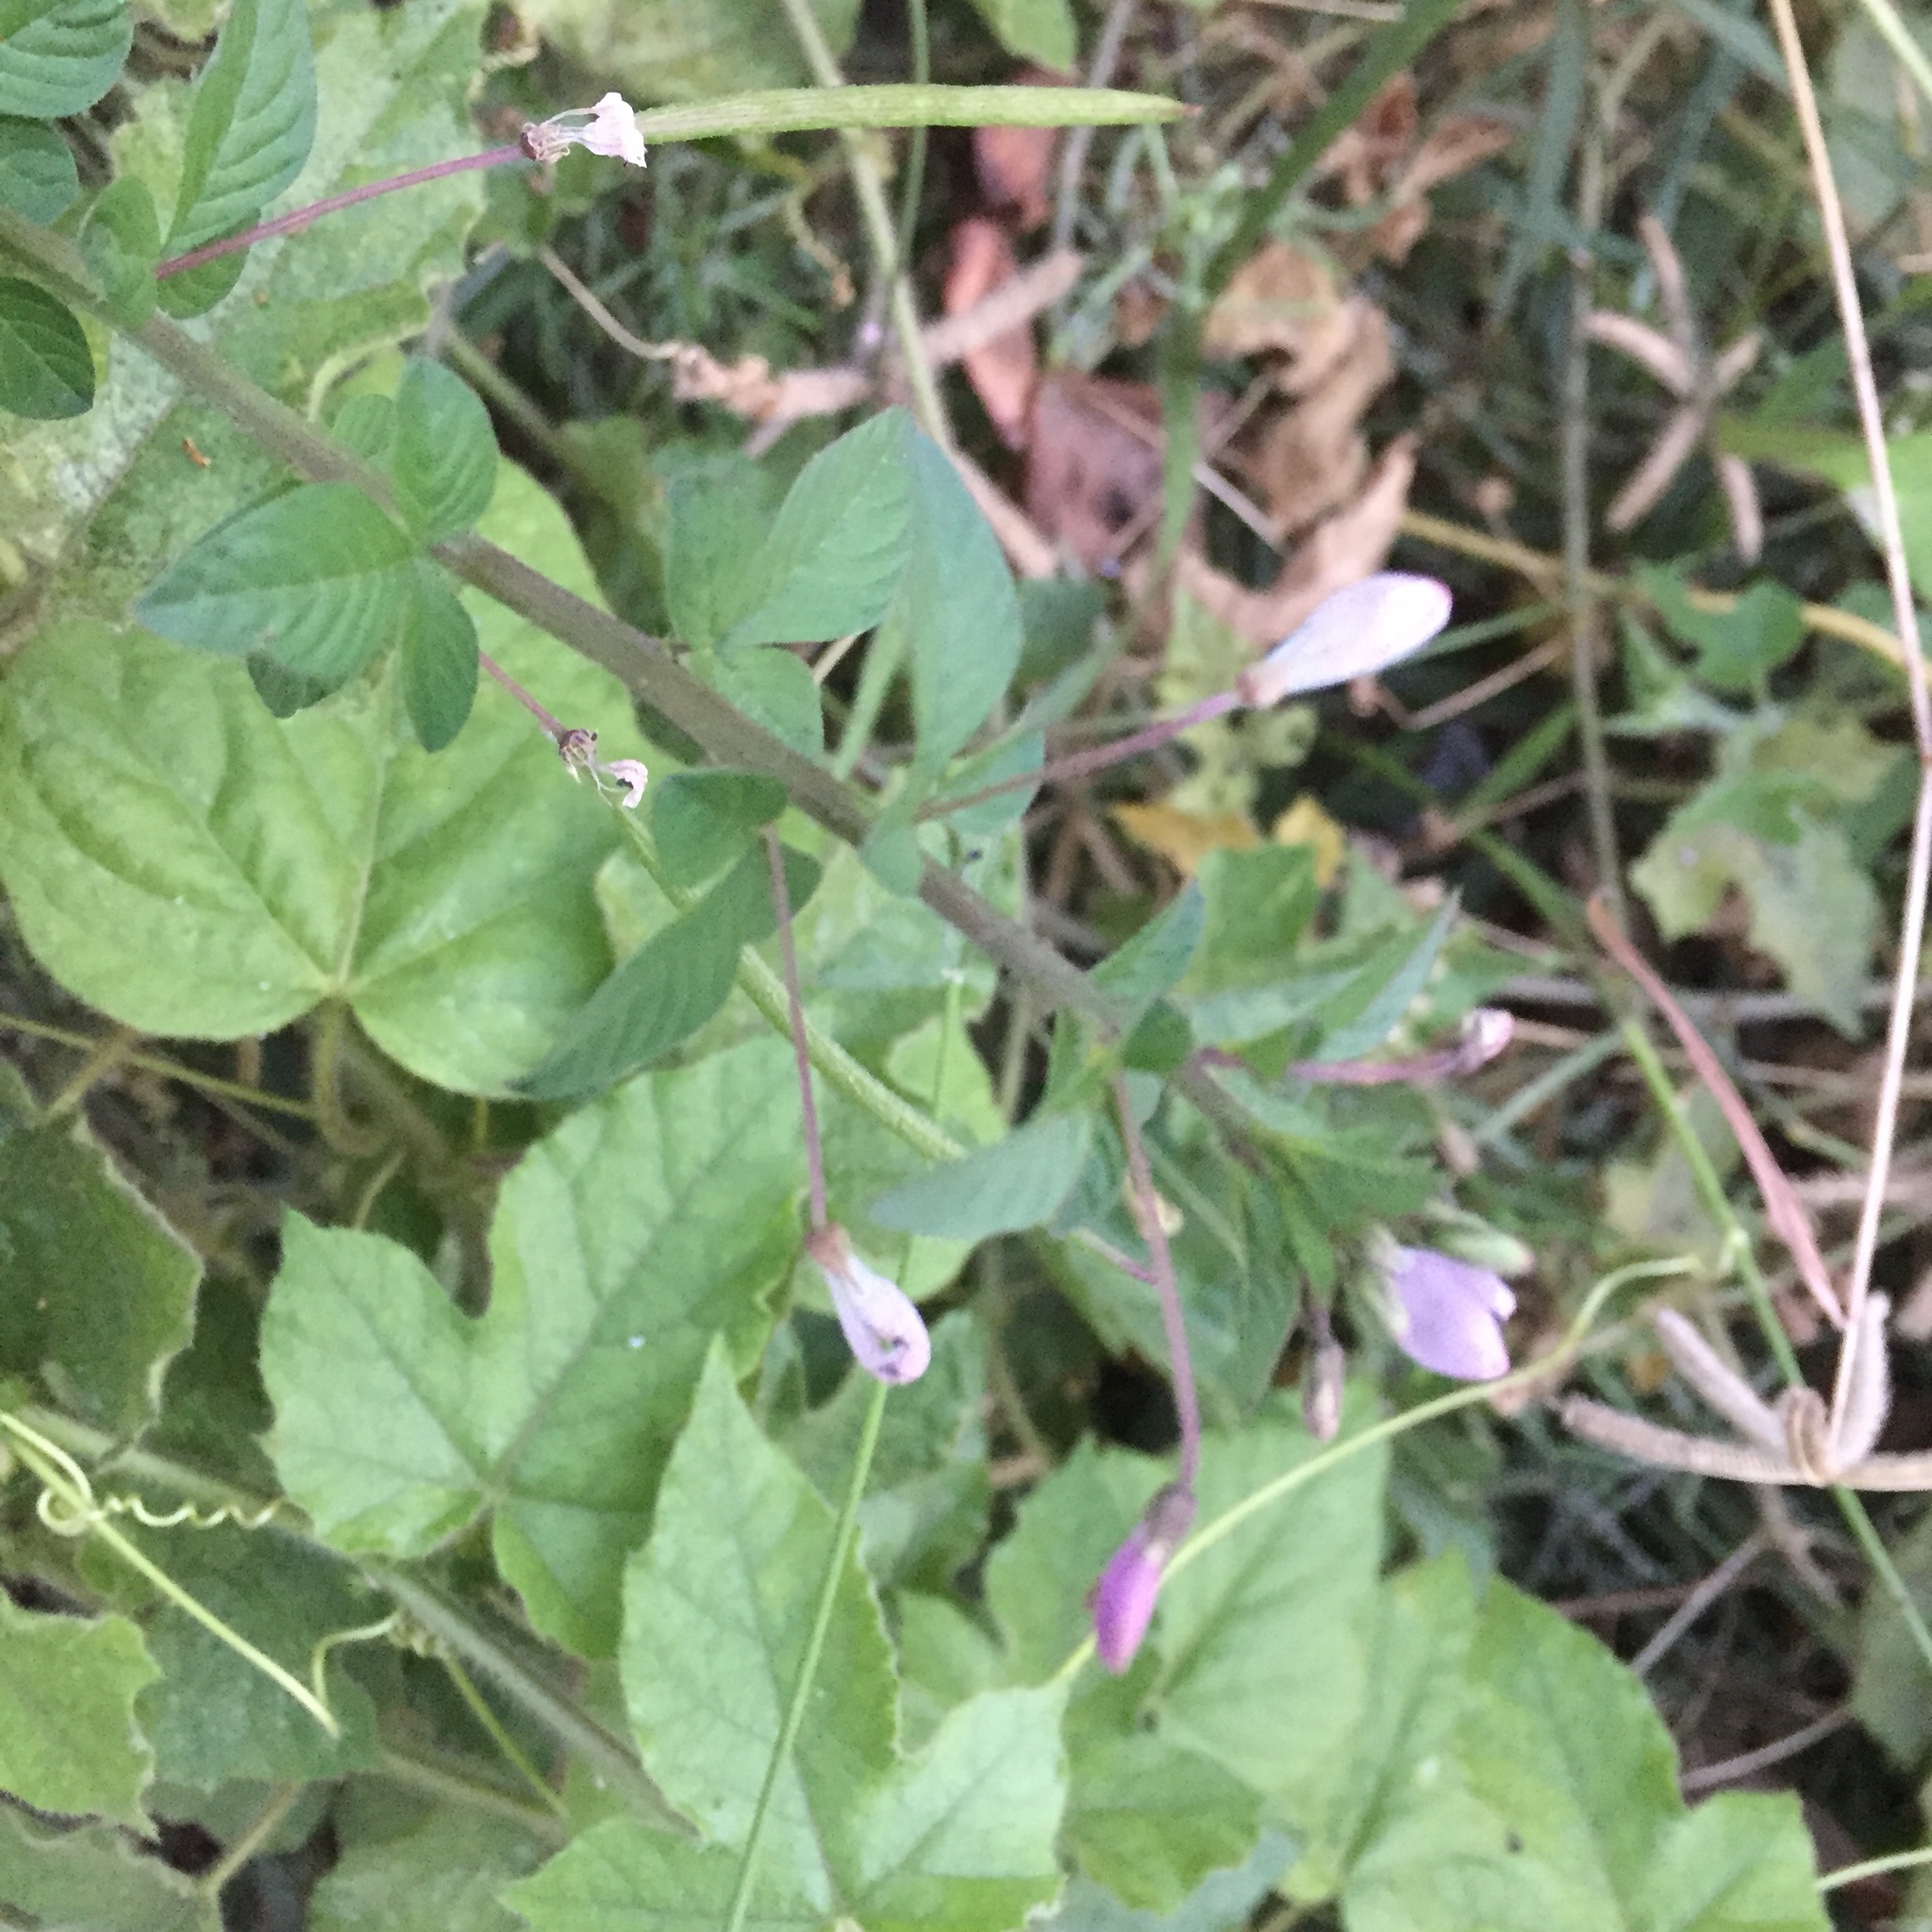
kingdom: Plantae
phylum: Tracheophyta
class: Magnoliopsida
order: Brassicales
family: Cleomaceae
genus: Sieruela
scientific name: Sieruela rutidosperma
